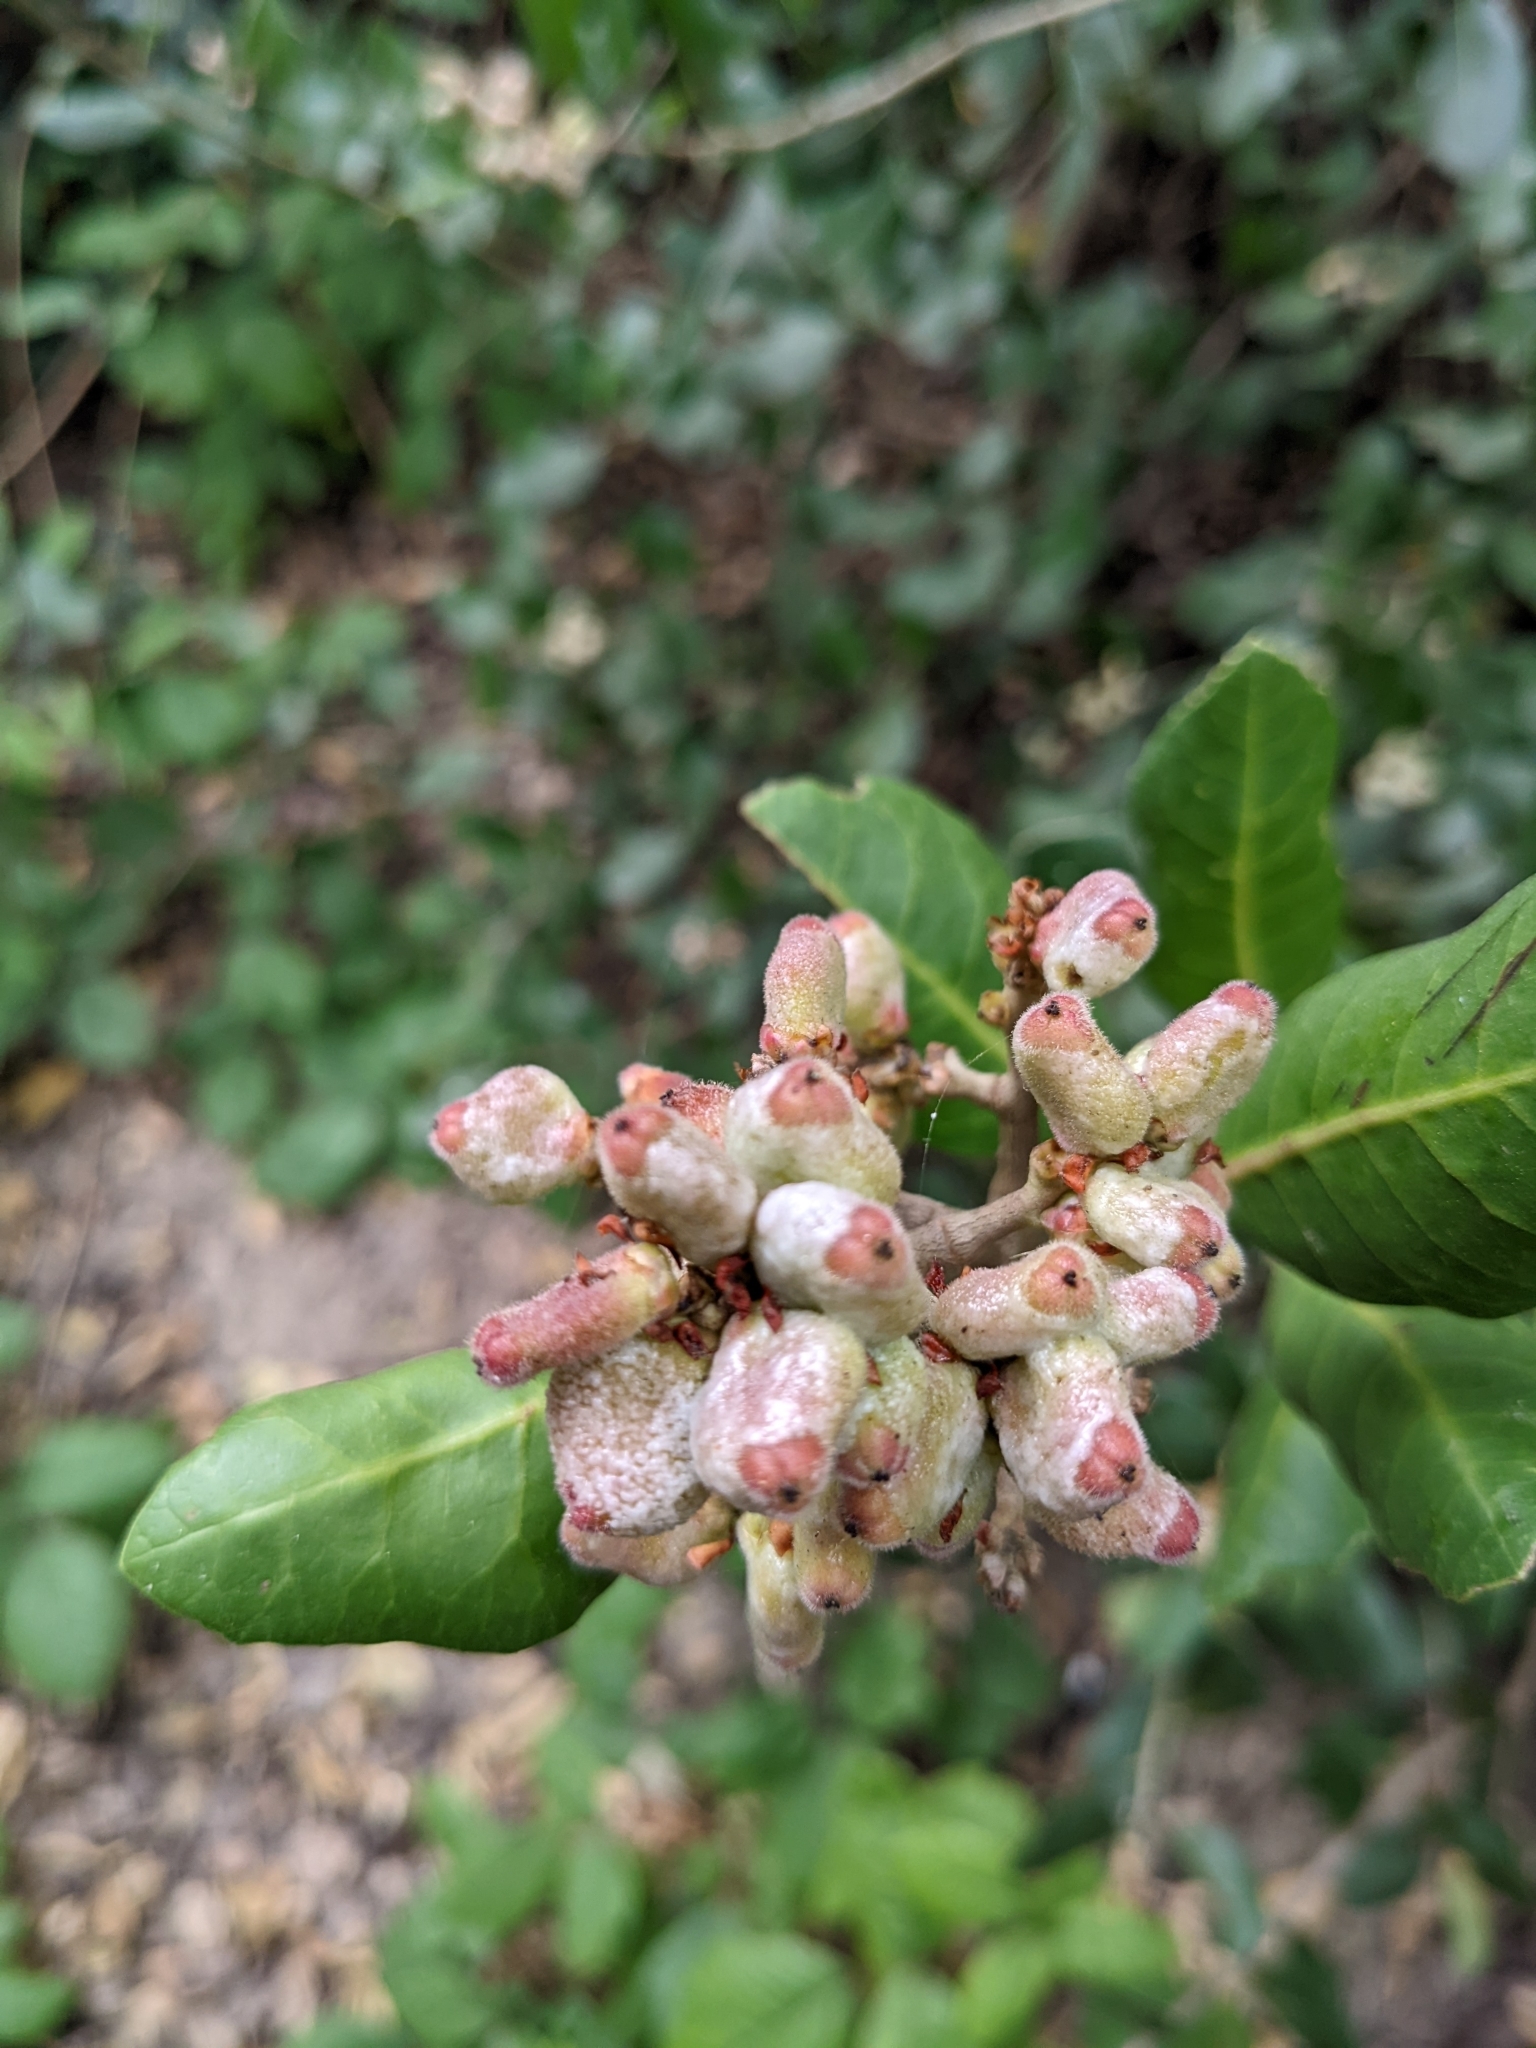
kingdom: Plantae
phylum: Tracheophyta
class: Magnoliopsida
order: Sapindales
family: Anacardiaceae
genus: Rhus
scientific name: Rhus integrifolia
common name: Lemonade sumac
